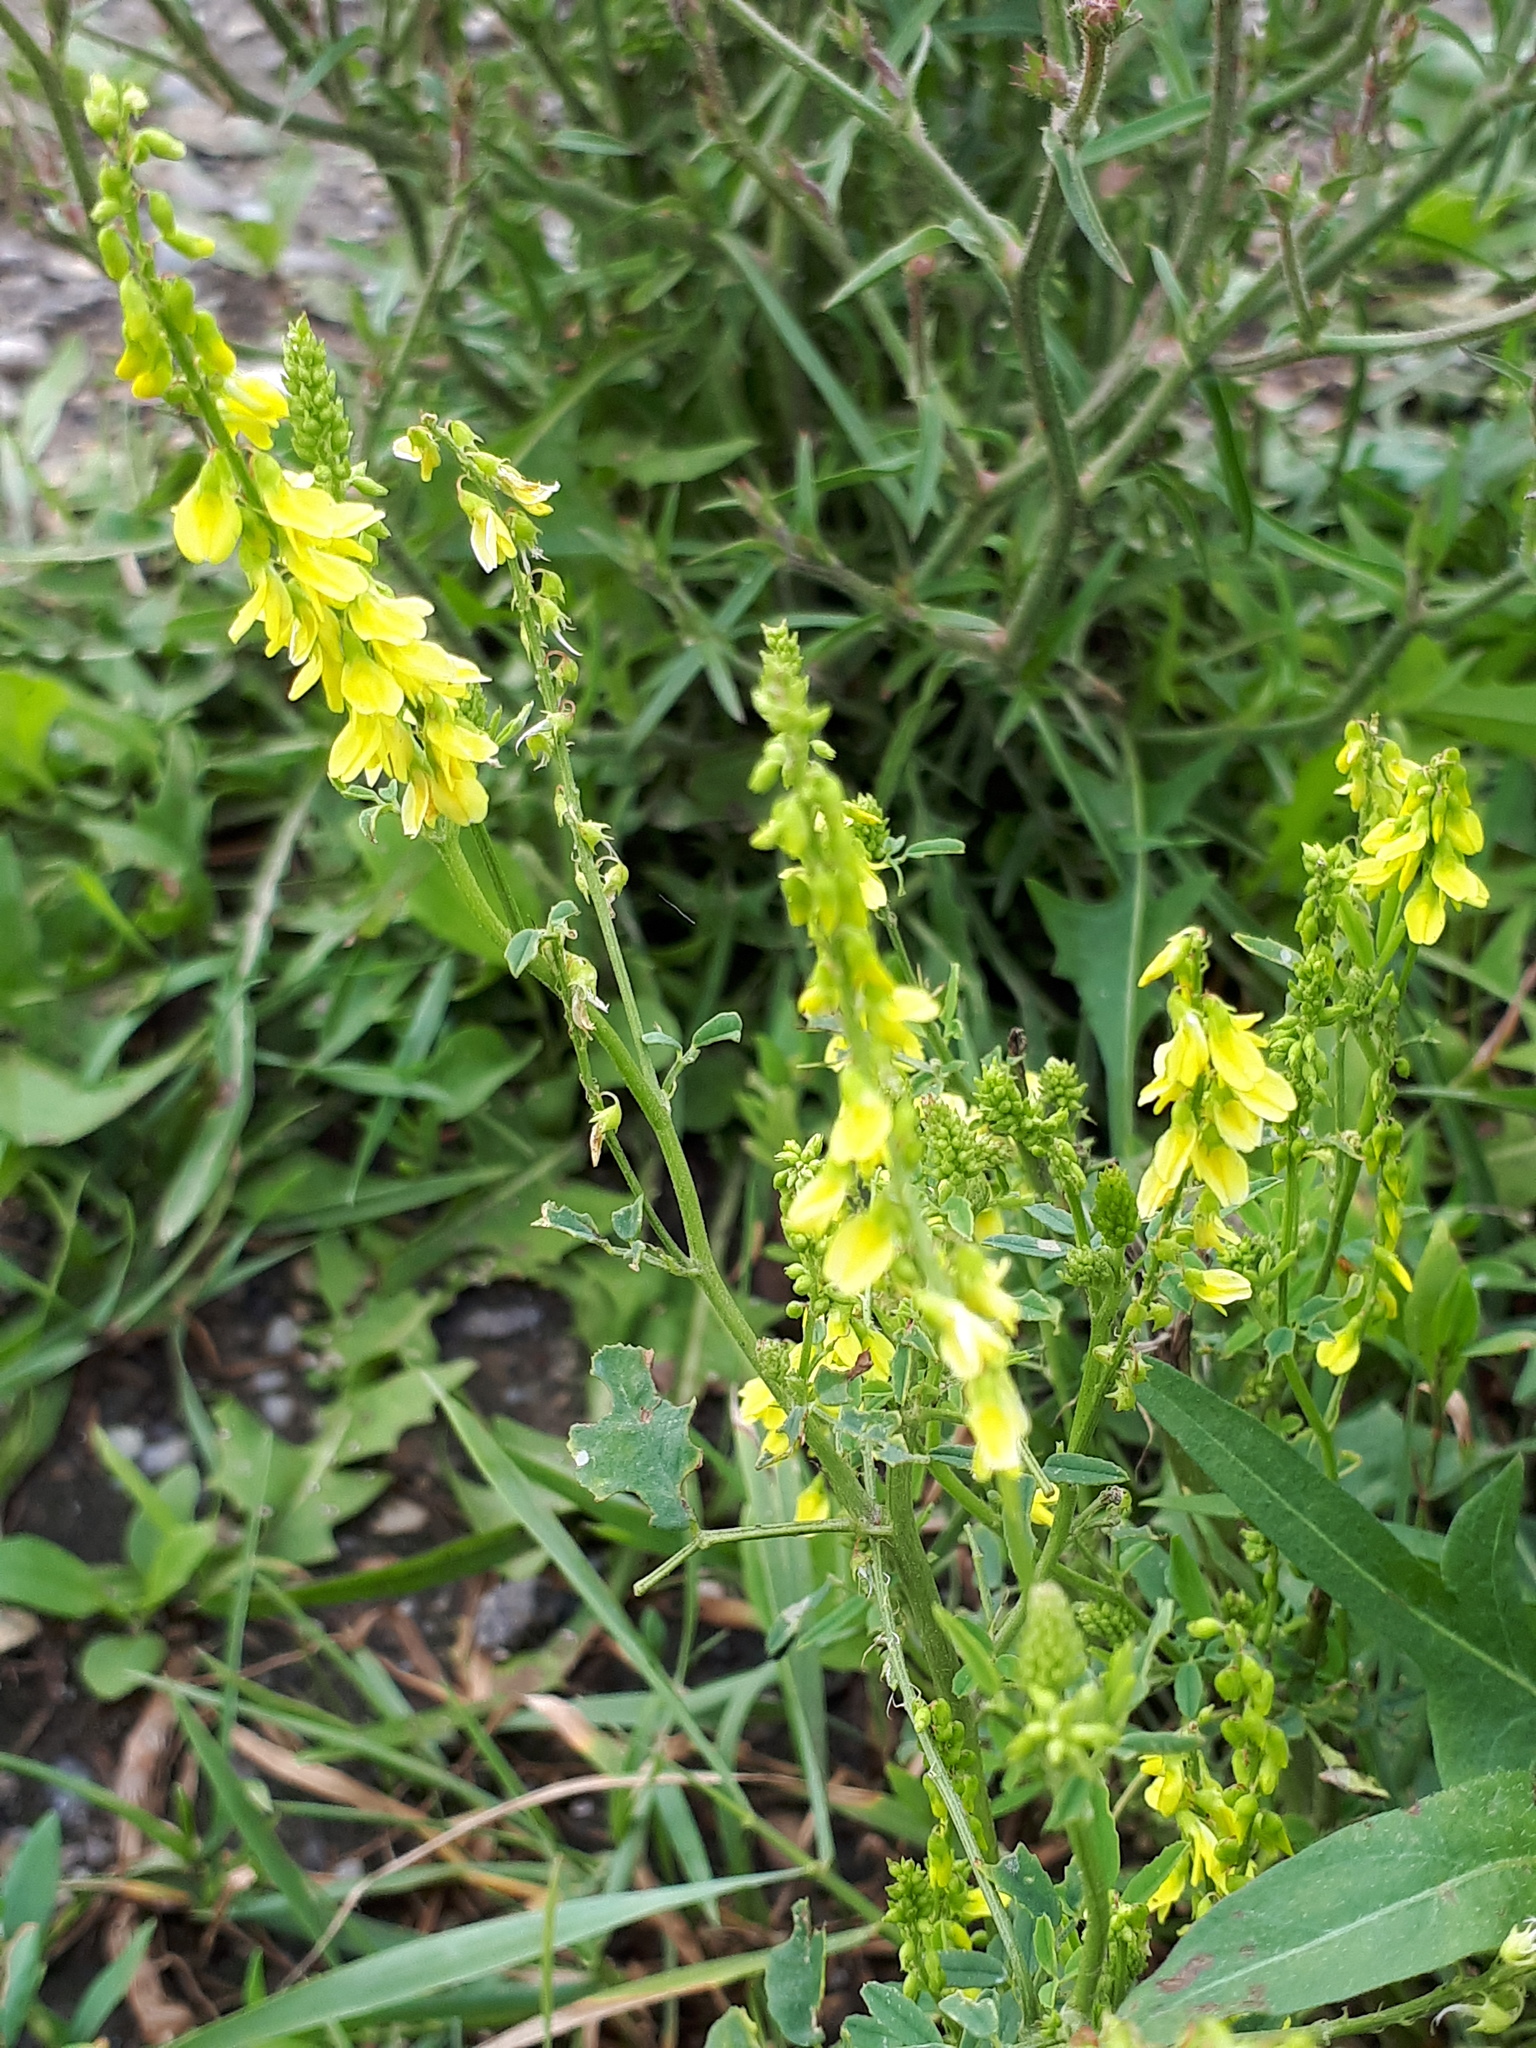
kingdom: Plantae
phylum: Tracheophyta
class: Magnoliopsida
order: Fabales
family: Fabaceae
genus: Melilotus
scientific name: Melilotus officinalis
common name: Sweetclover
